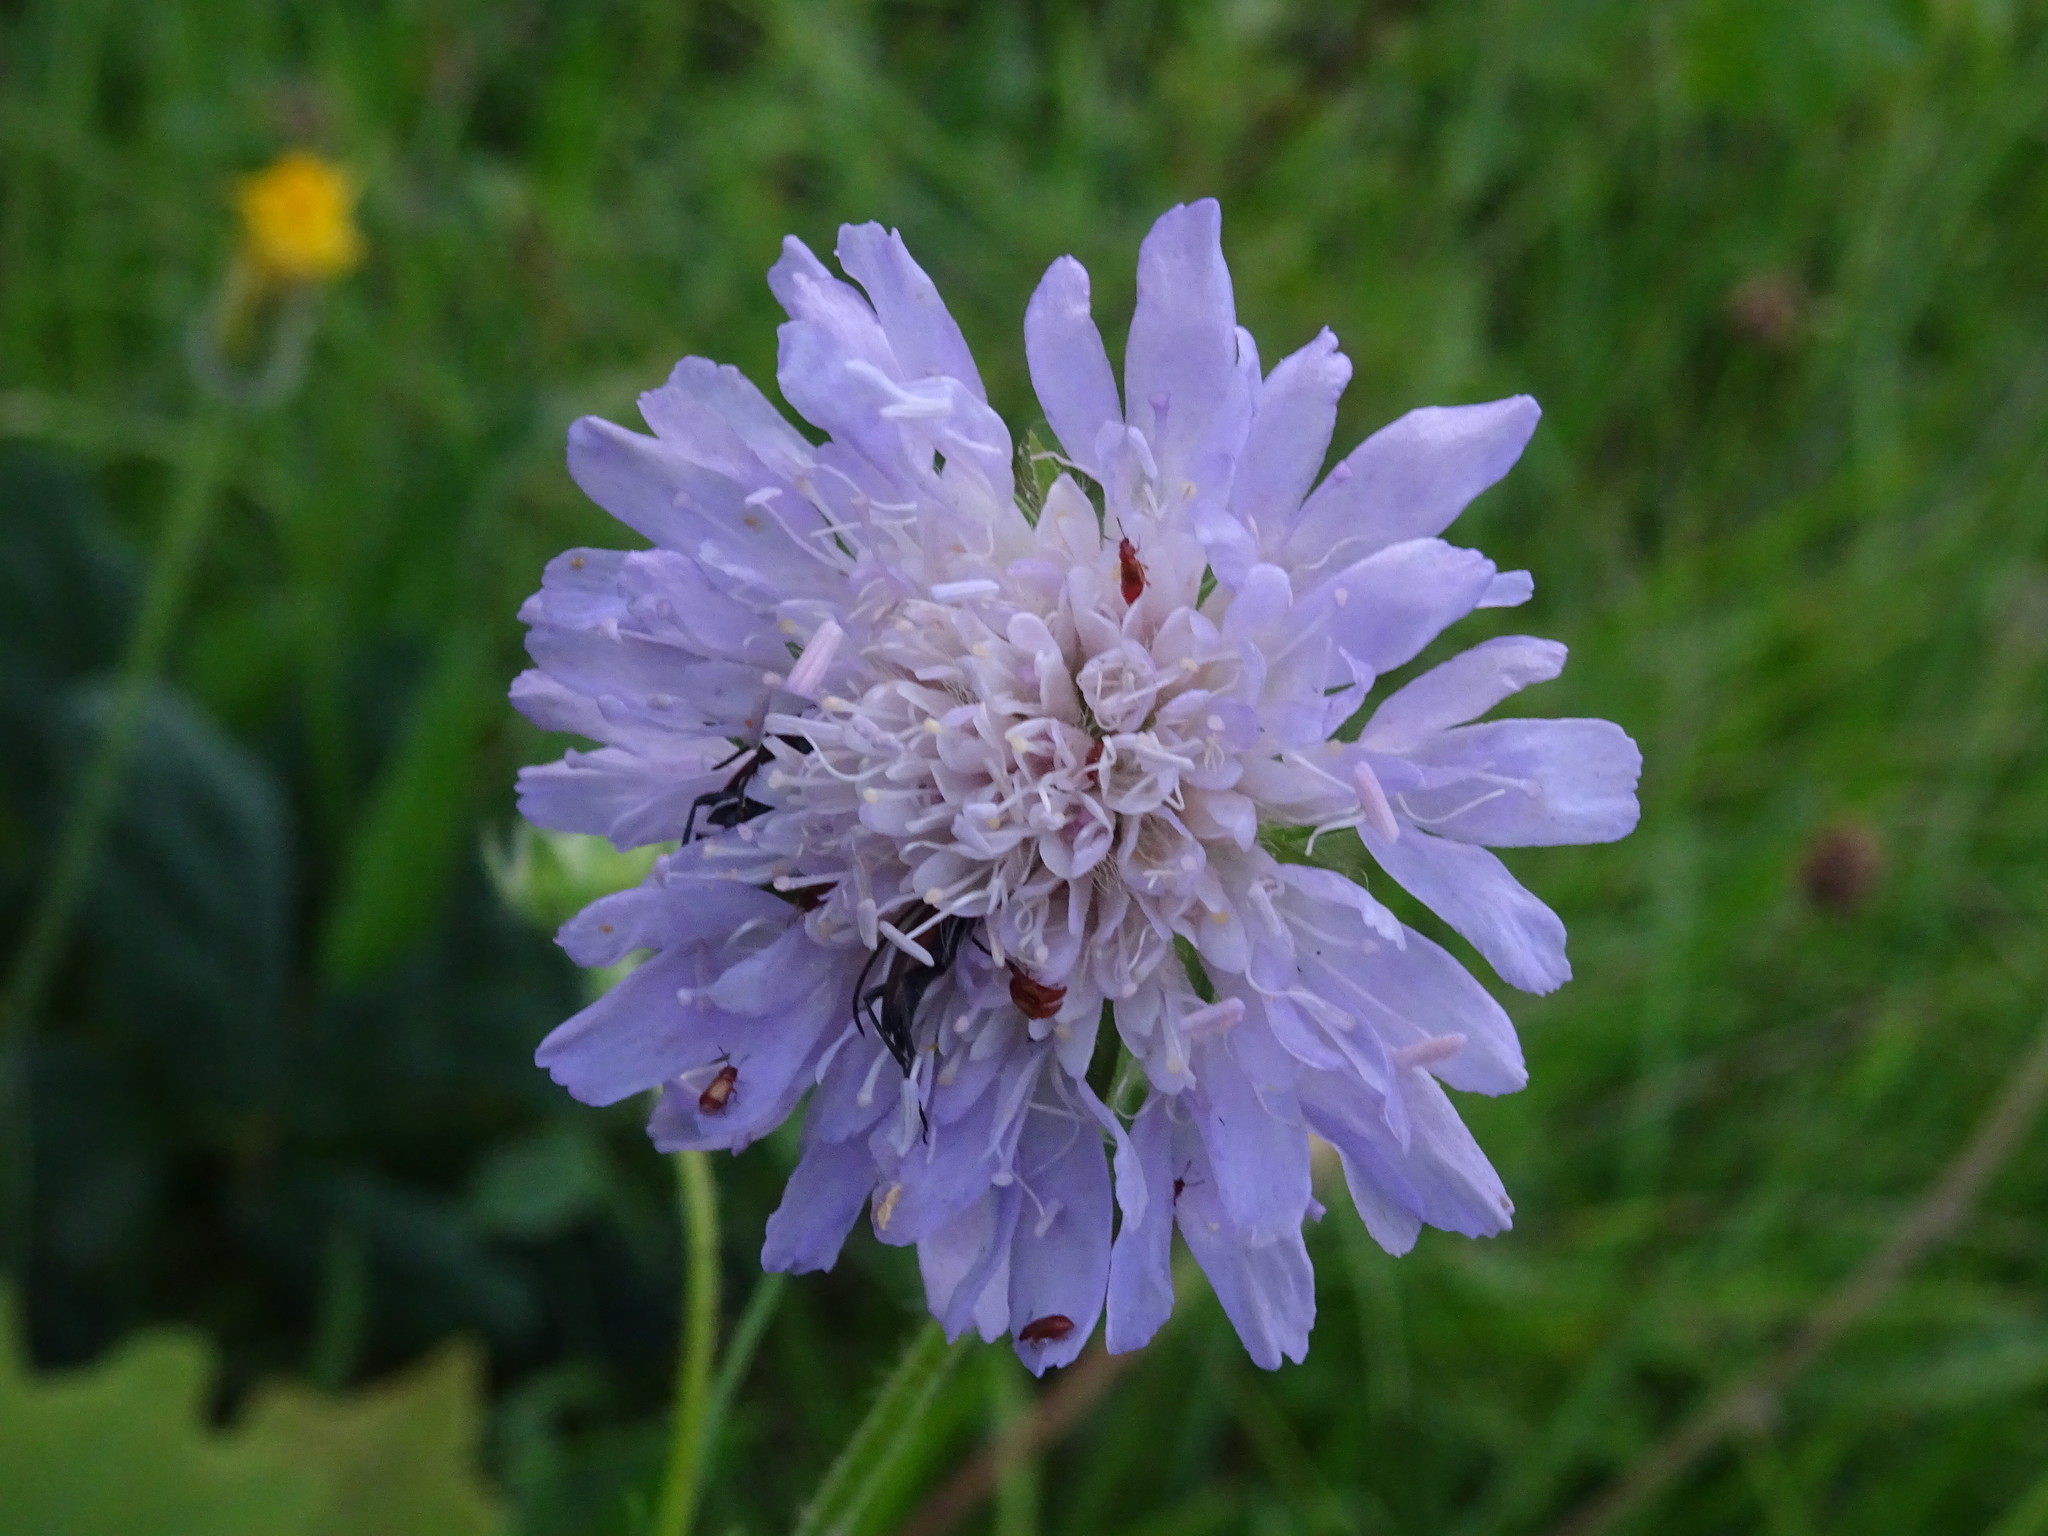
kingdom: Plantae
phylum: Tracheophyta
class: Magnoliopsida
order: Dipsacales
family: Caprifoliaceae
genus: Knautia
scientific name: Knautia arvensis
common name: Field scabiosa
